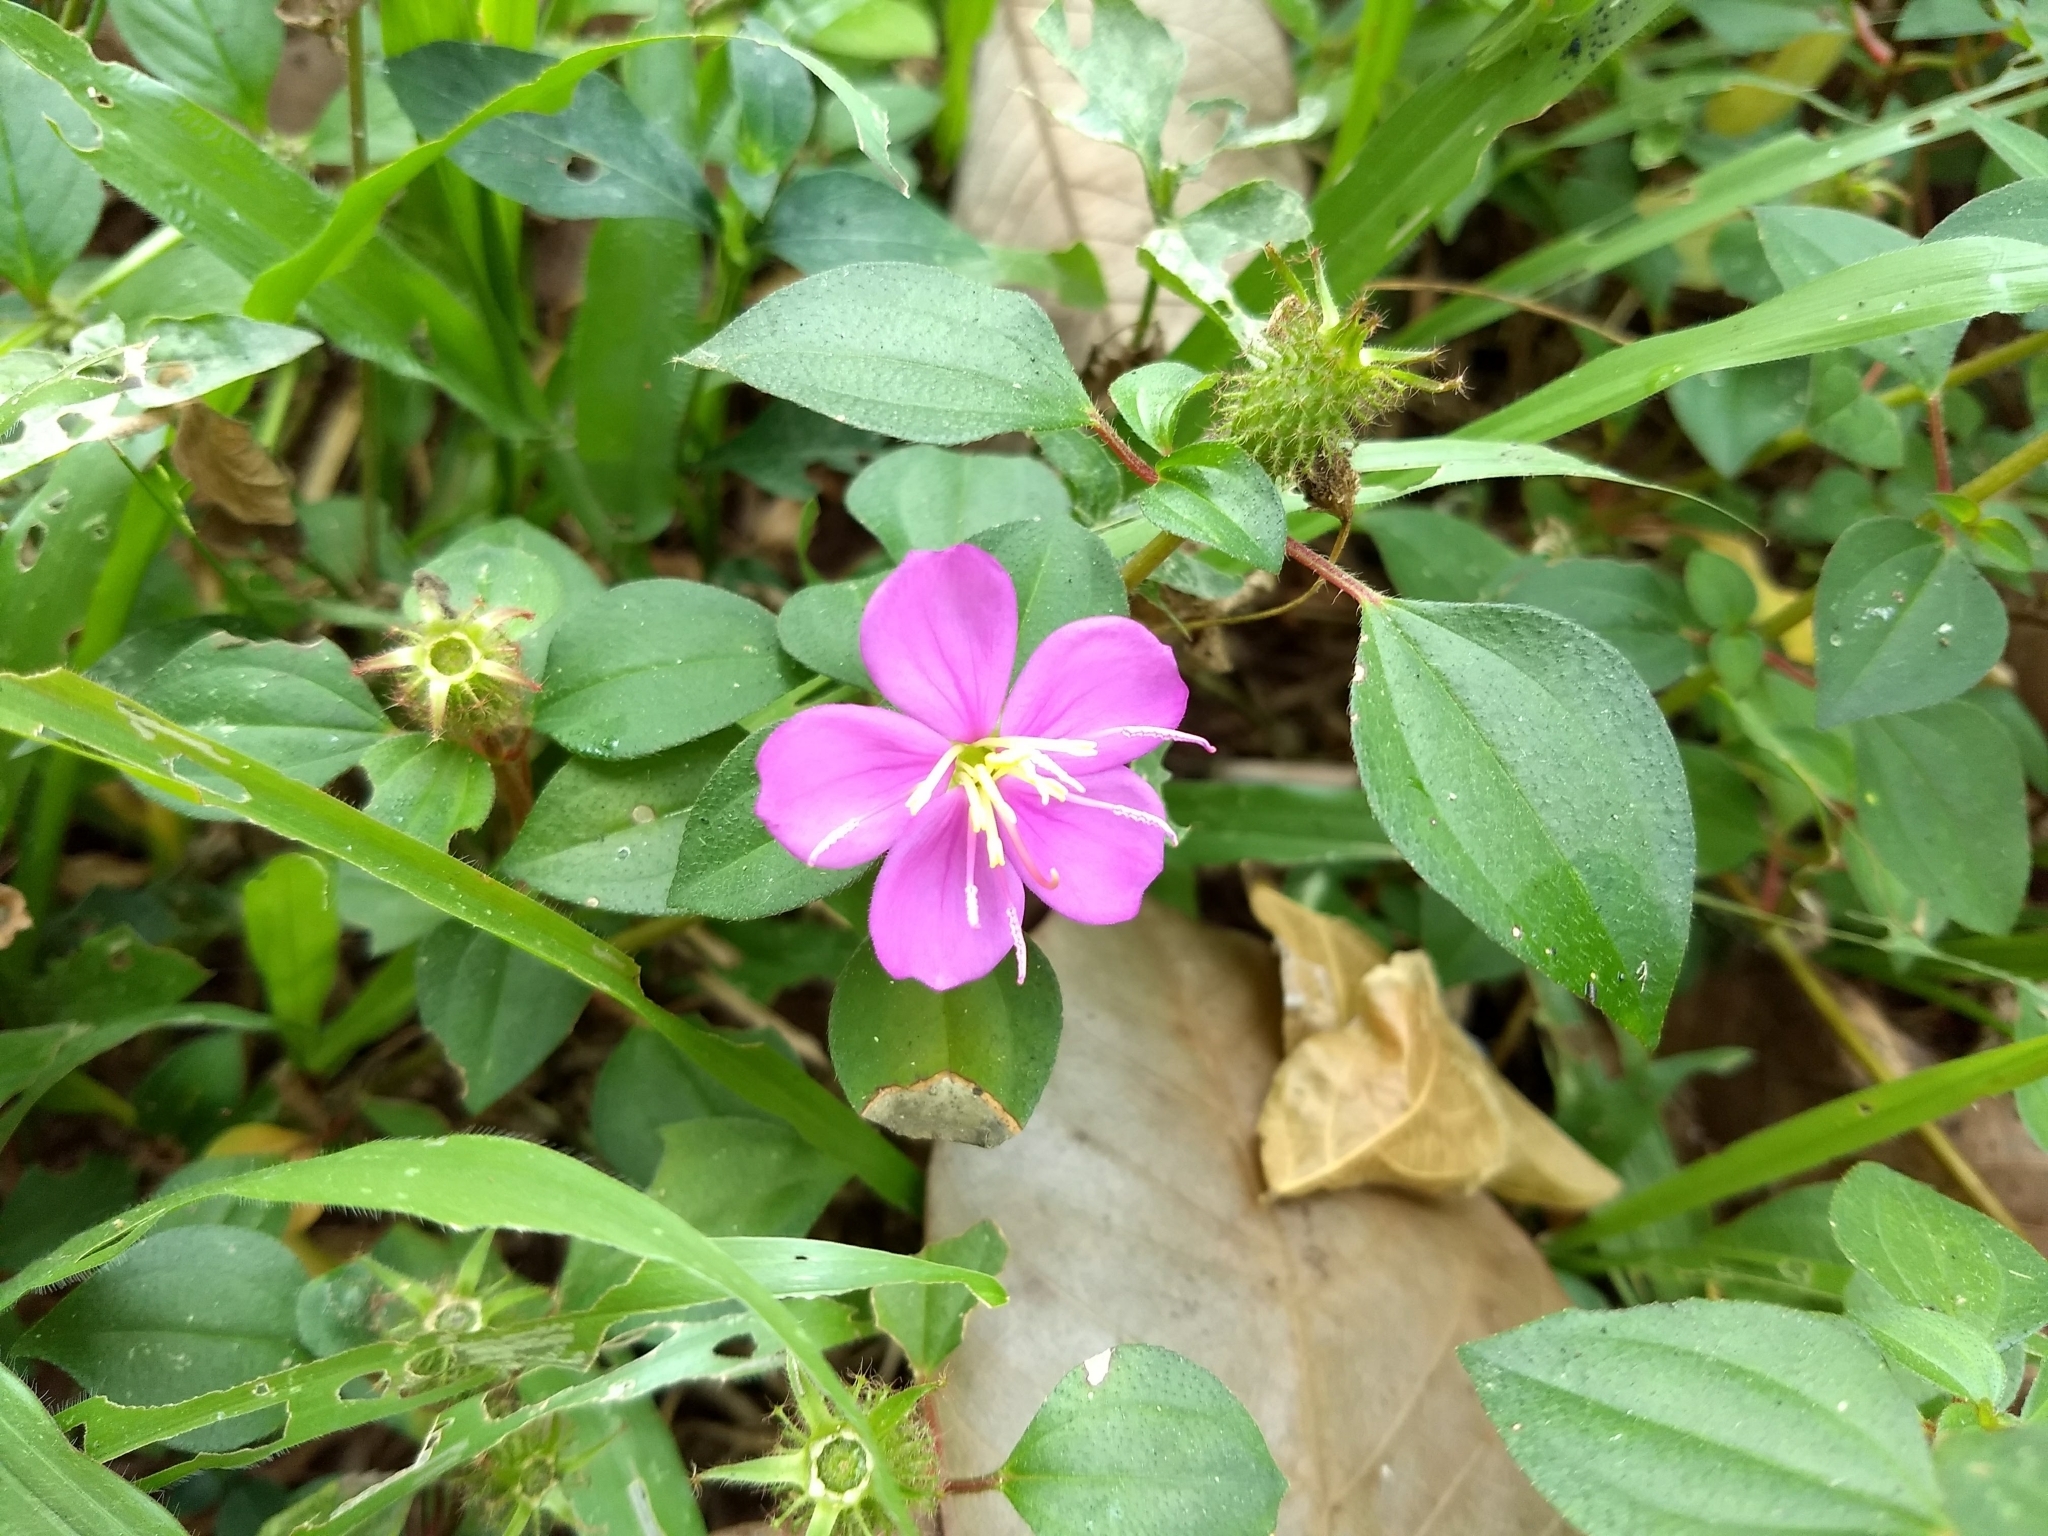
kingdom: Plantae
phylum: Tracheophyta
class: Magnoliopsida
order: Myrtales
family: Melastomataceae
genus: Heterotis
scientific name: Heterotis rotundifolia
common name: Pinklady
